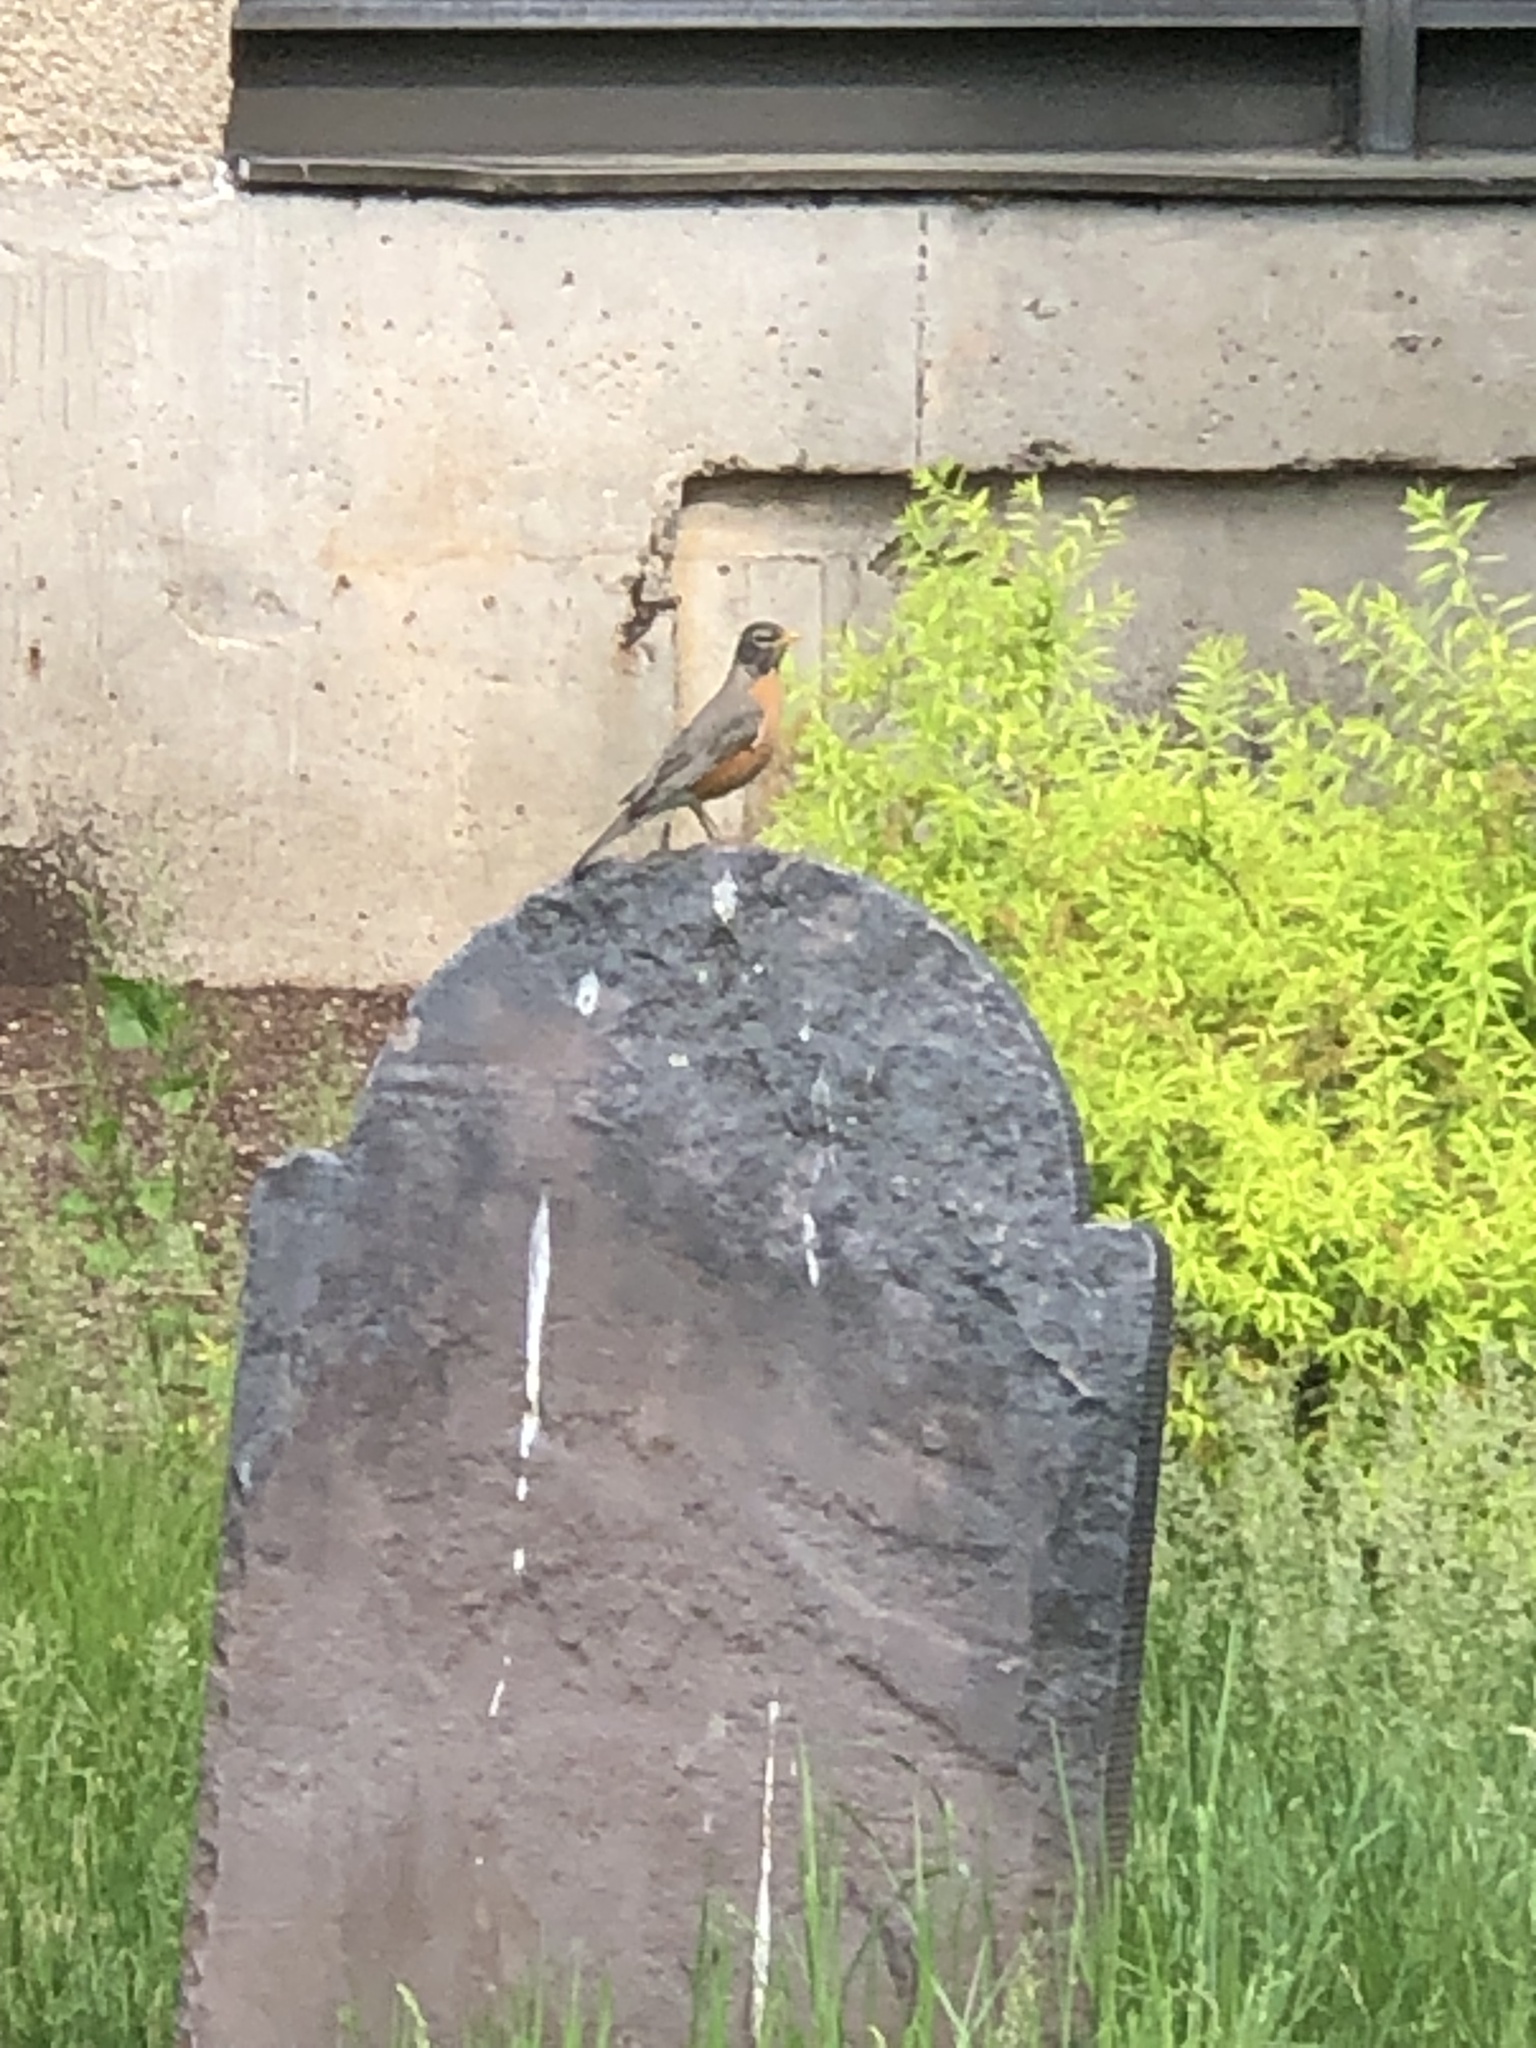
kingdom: Animalia
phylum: Chordata
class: Aves
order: Passeriformes
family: Turdidae
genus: Turdus
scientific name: Turdus migratorius
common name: American robin
